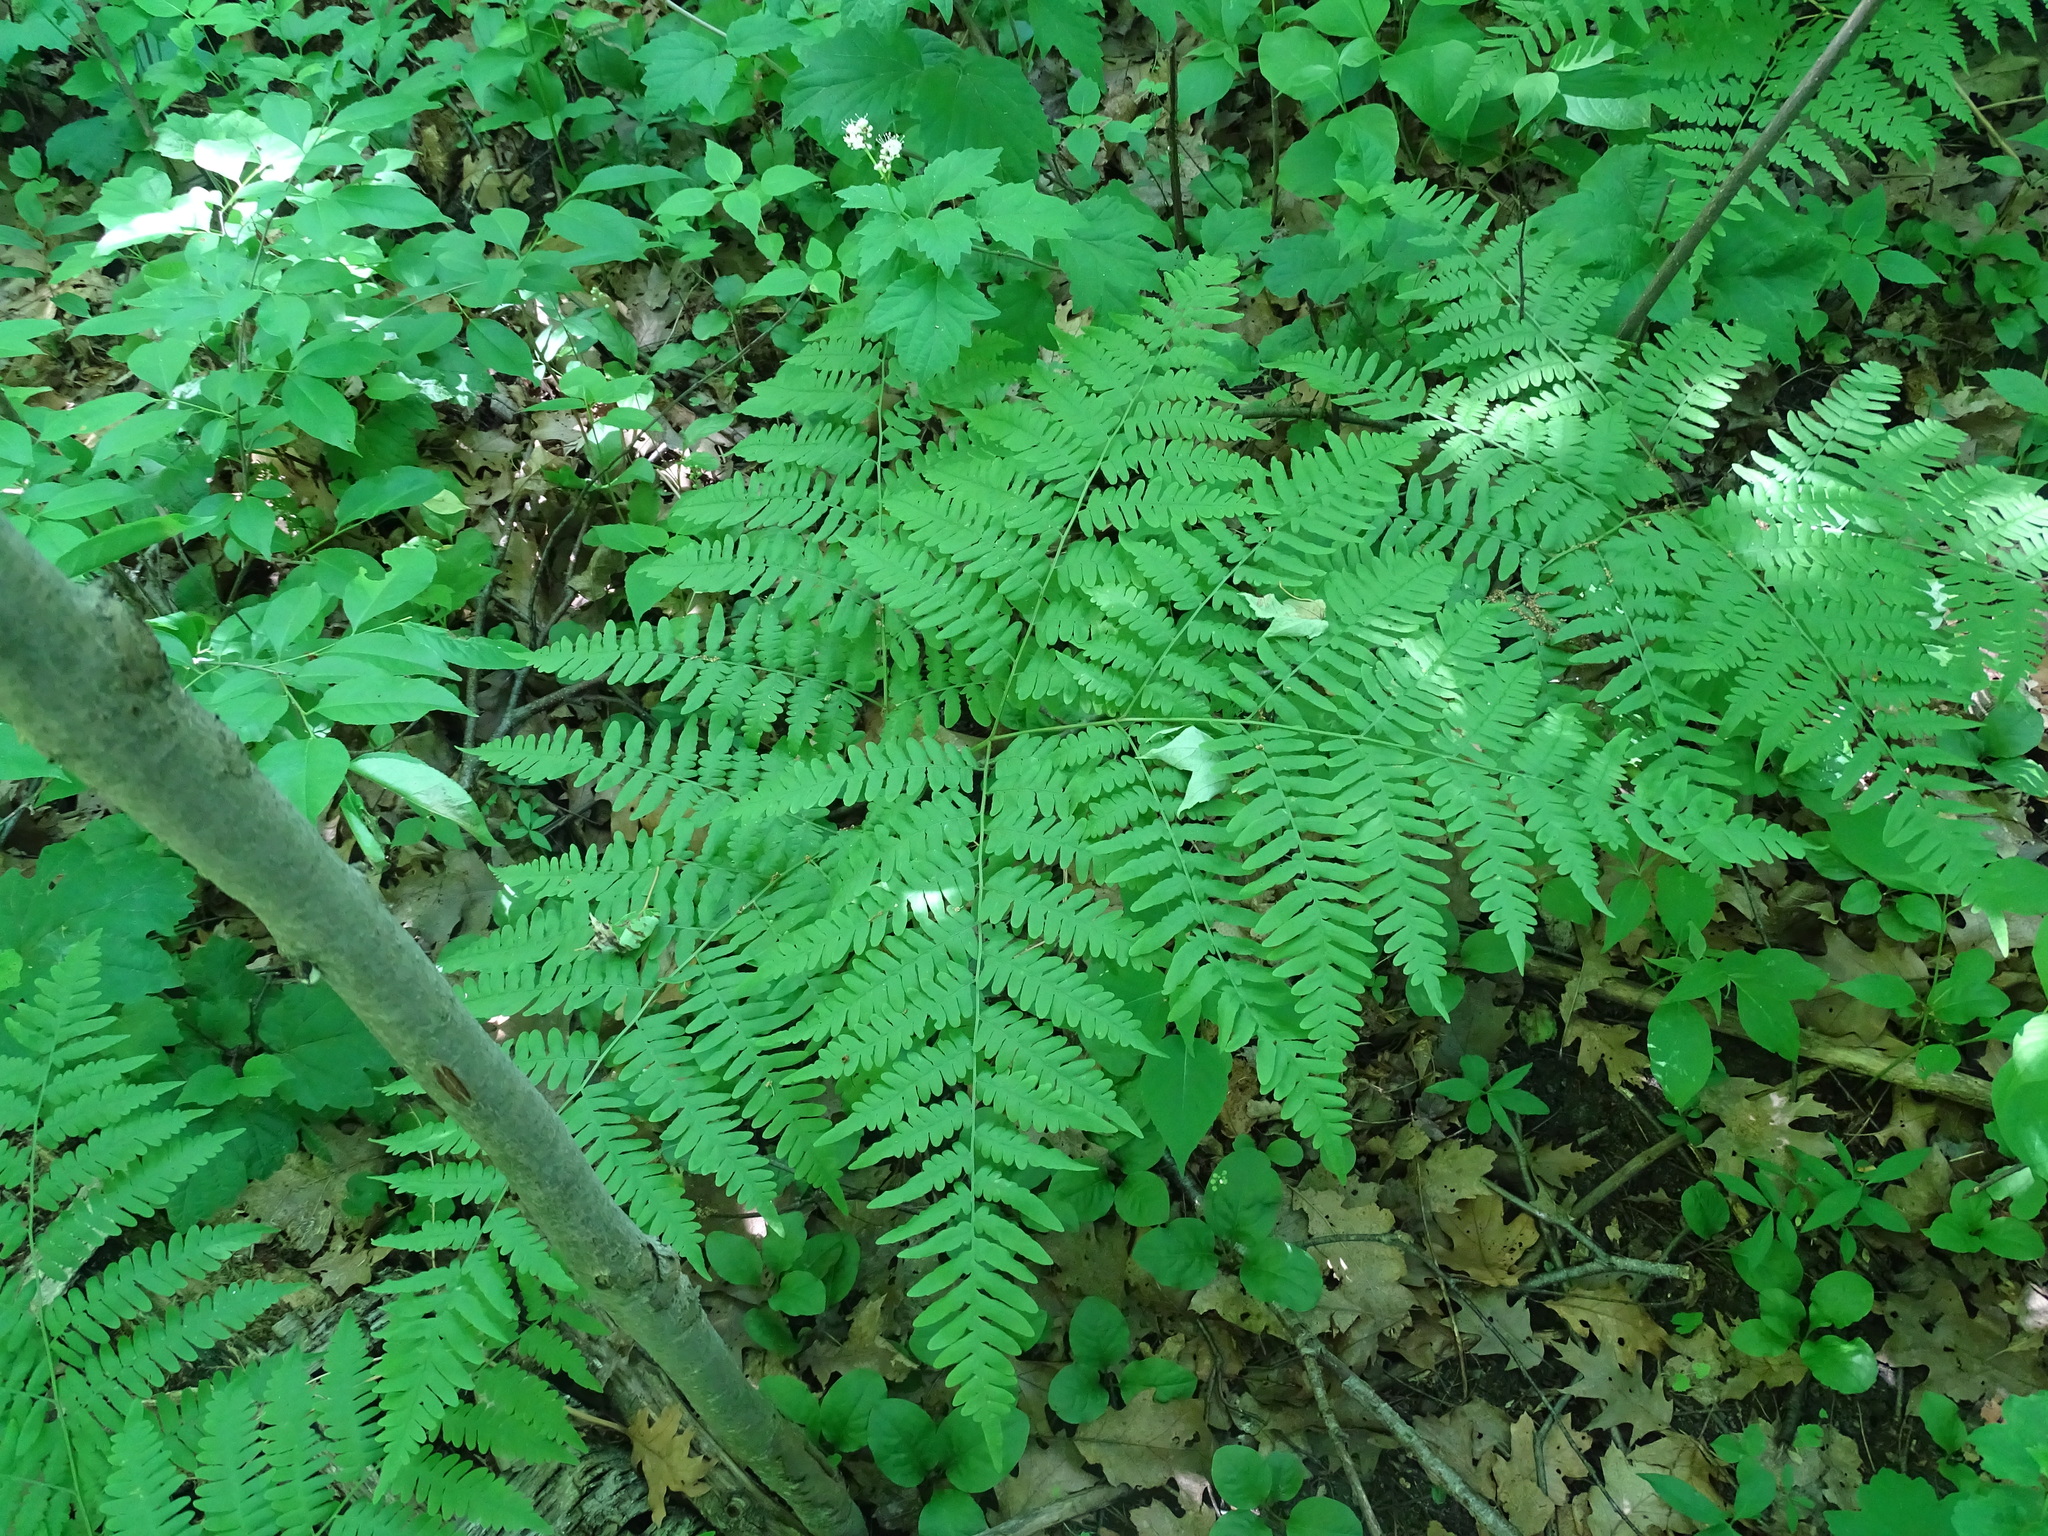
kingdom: Plantae
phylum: Tracheophyta
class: Polypodiopsida
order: Polypodiales
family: Dennstaedtiaceae
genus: Pteridium
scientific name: Pteridium aquilinum
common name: Bracken
